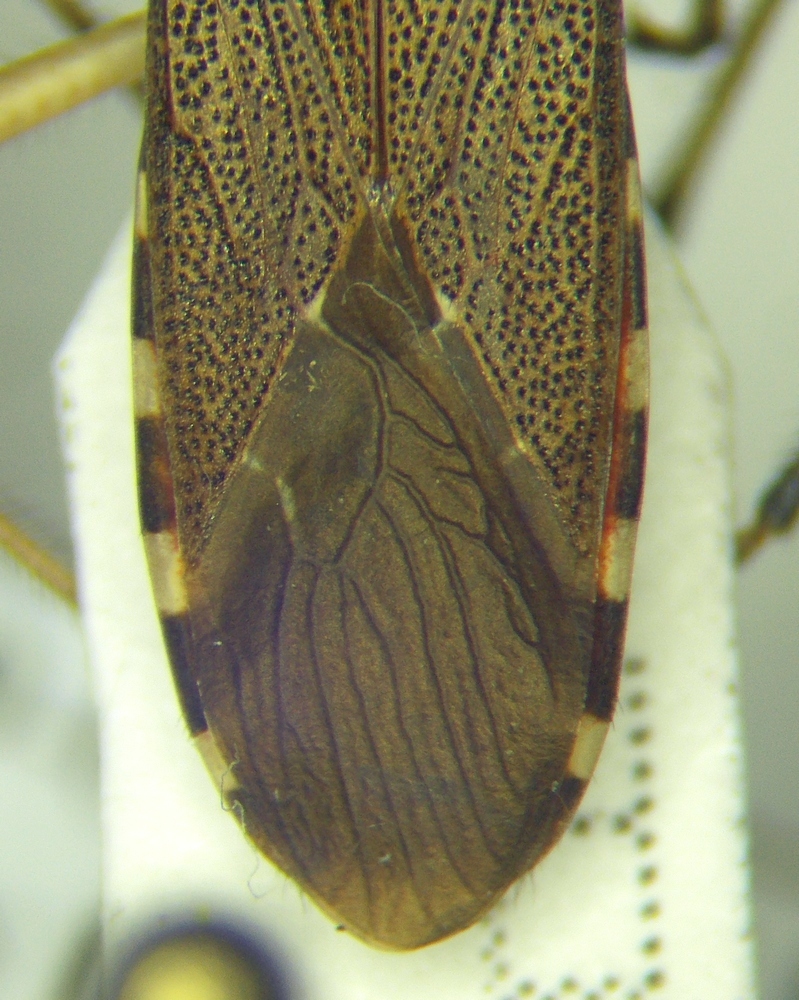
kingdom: Animalia
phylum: Arthropoda
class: Insecta
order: Hemiptera
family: Stenocephalidae
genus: Dicranocephalus
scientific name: Dicranocephalus albipes
